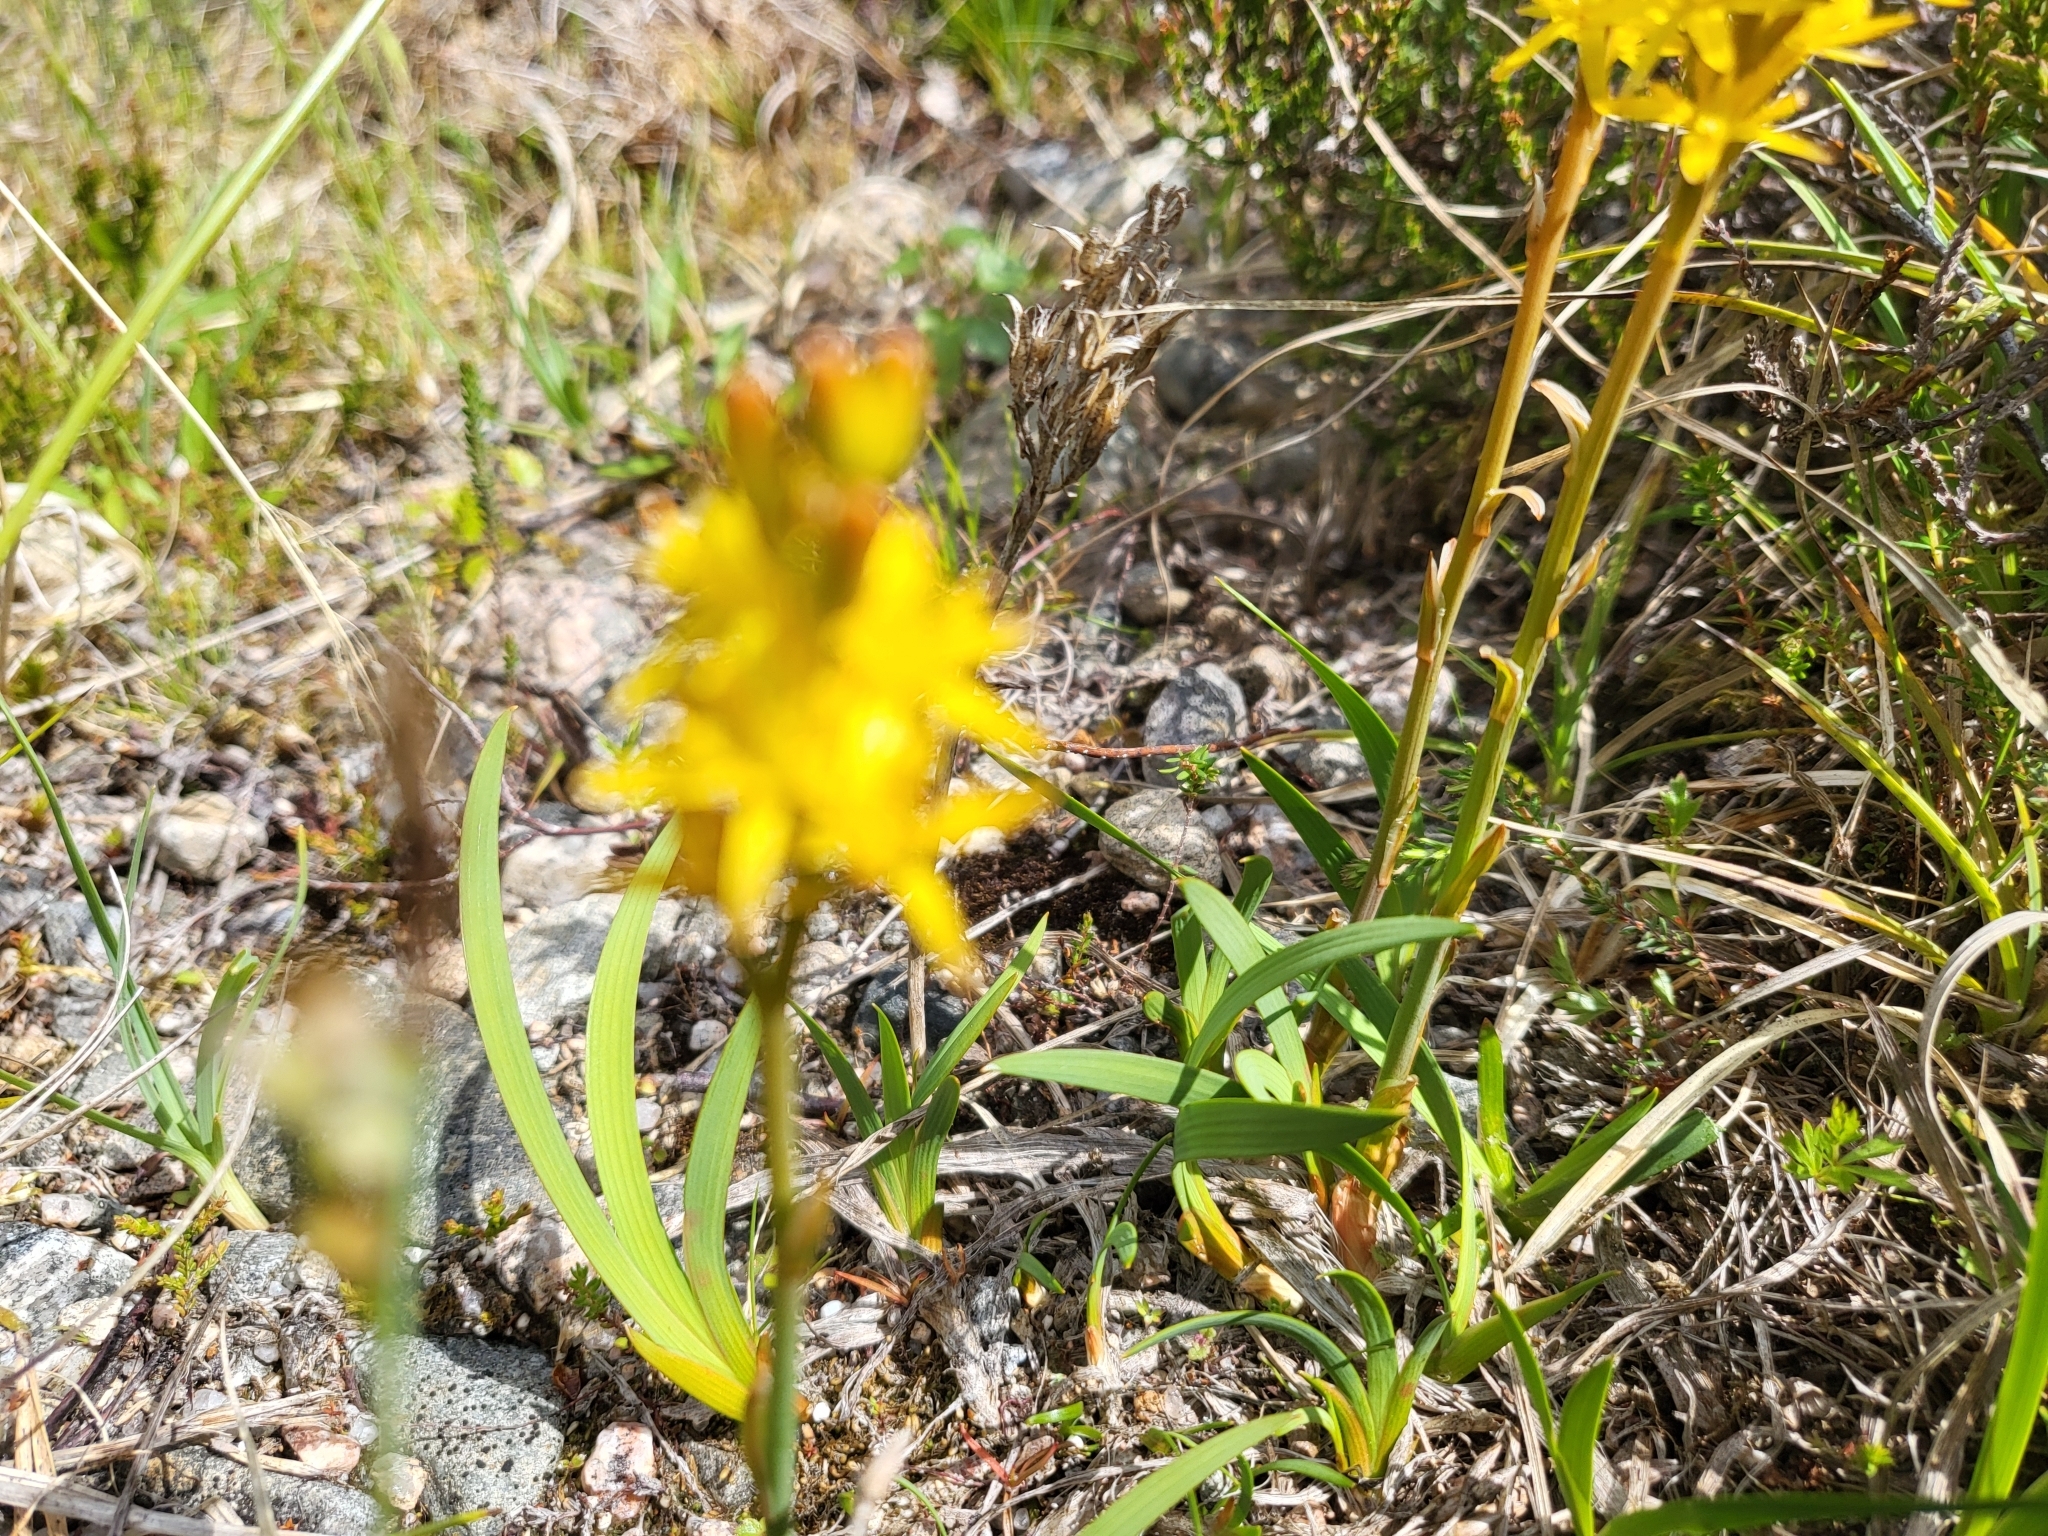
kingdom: Plantae
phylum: Tracheophyta
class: Liliopsida
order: Dioscoreales
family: Nartheciaceae
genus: Narthecium
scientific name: Narthecium ossifragum
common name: Bog asphodel
